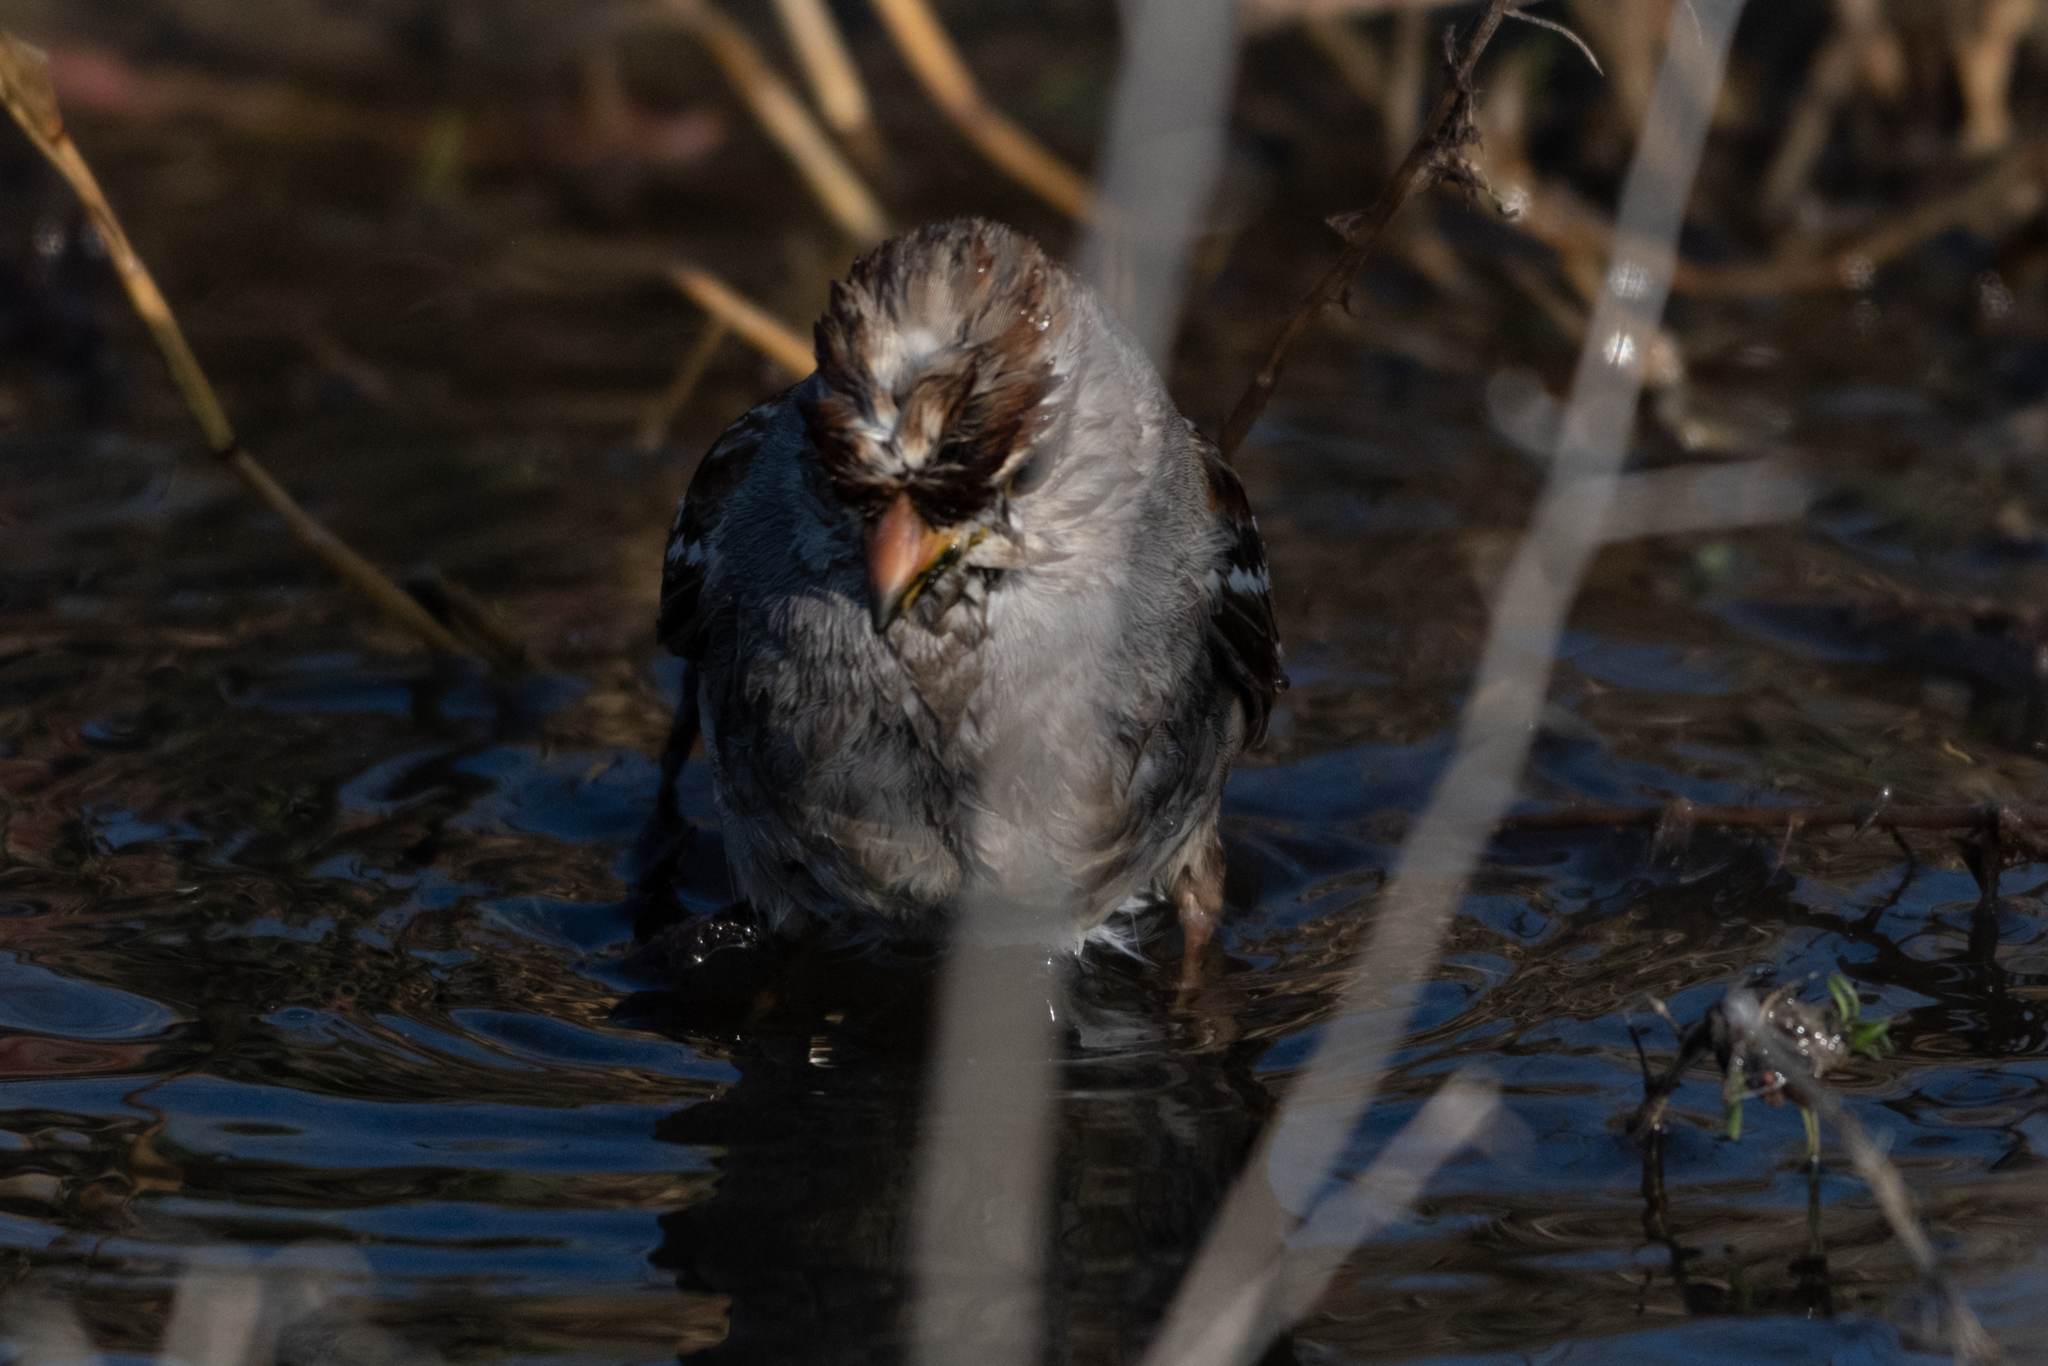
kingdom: Animalia
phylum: Chordata
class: Aves
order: Passeriformes
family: Passerellidae
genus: Zonotrichia
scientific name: Zonotrichia leucophrys
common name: White-crowned sparrow
